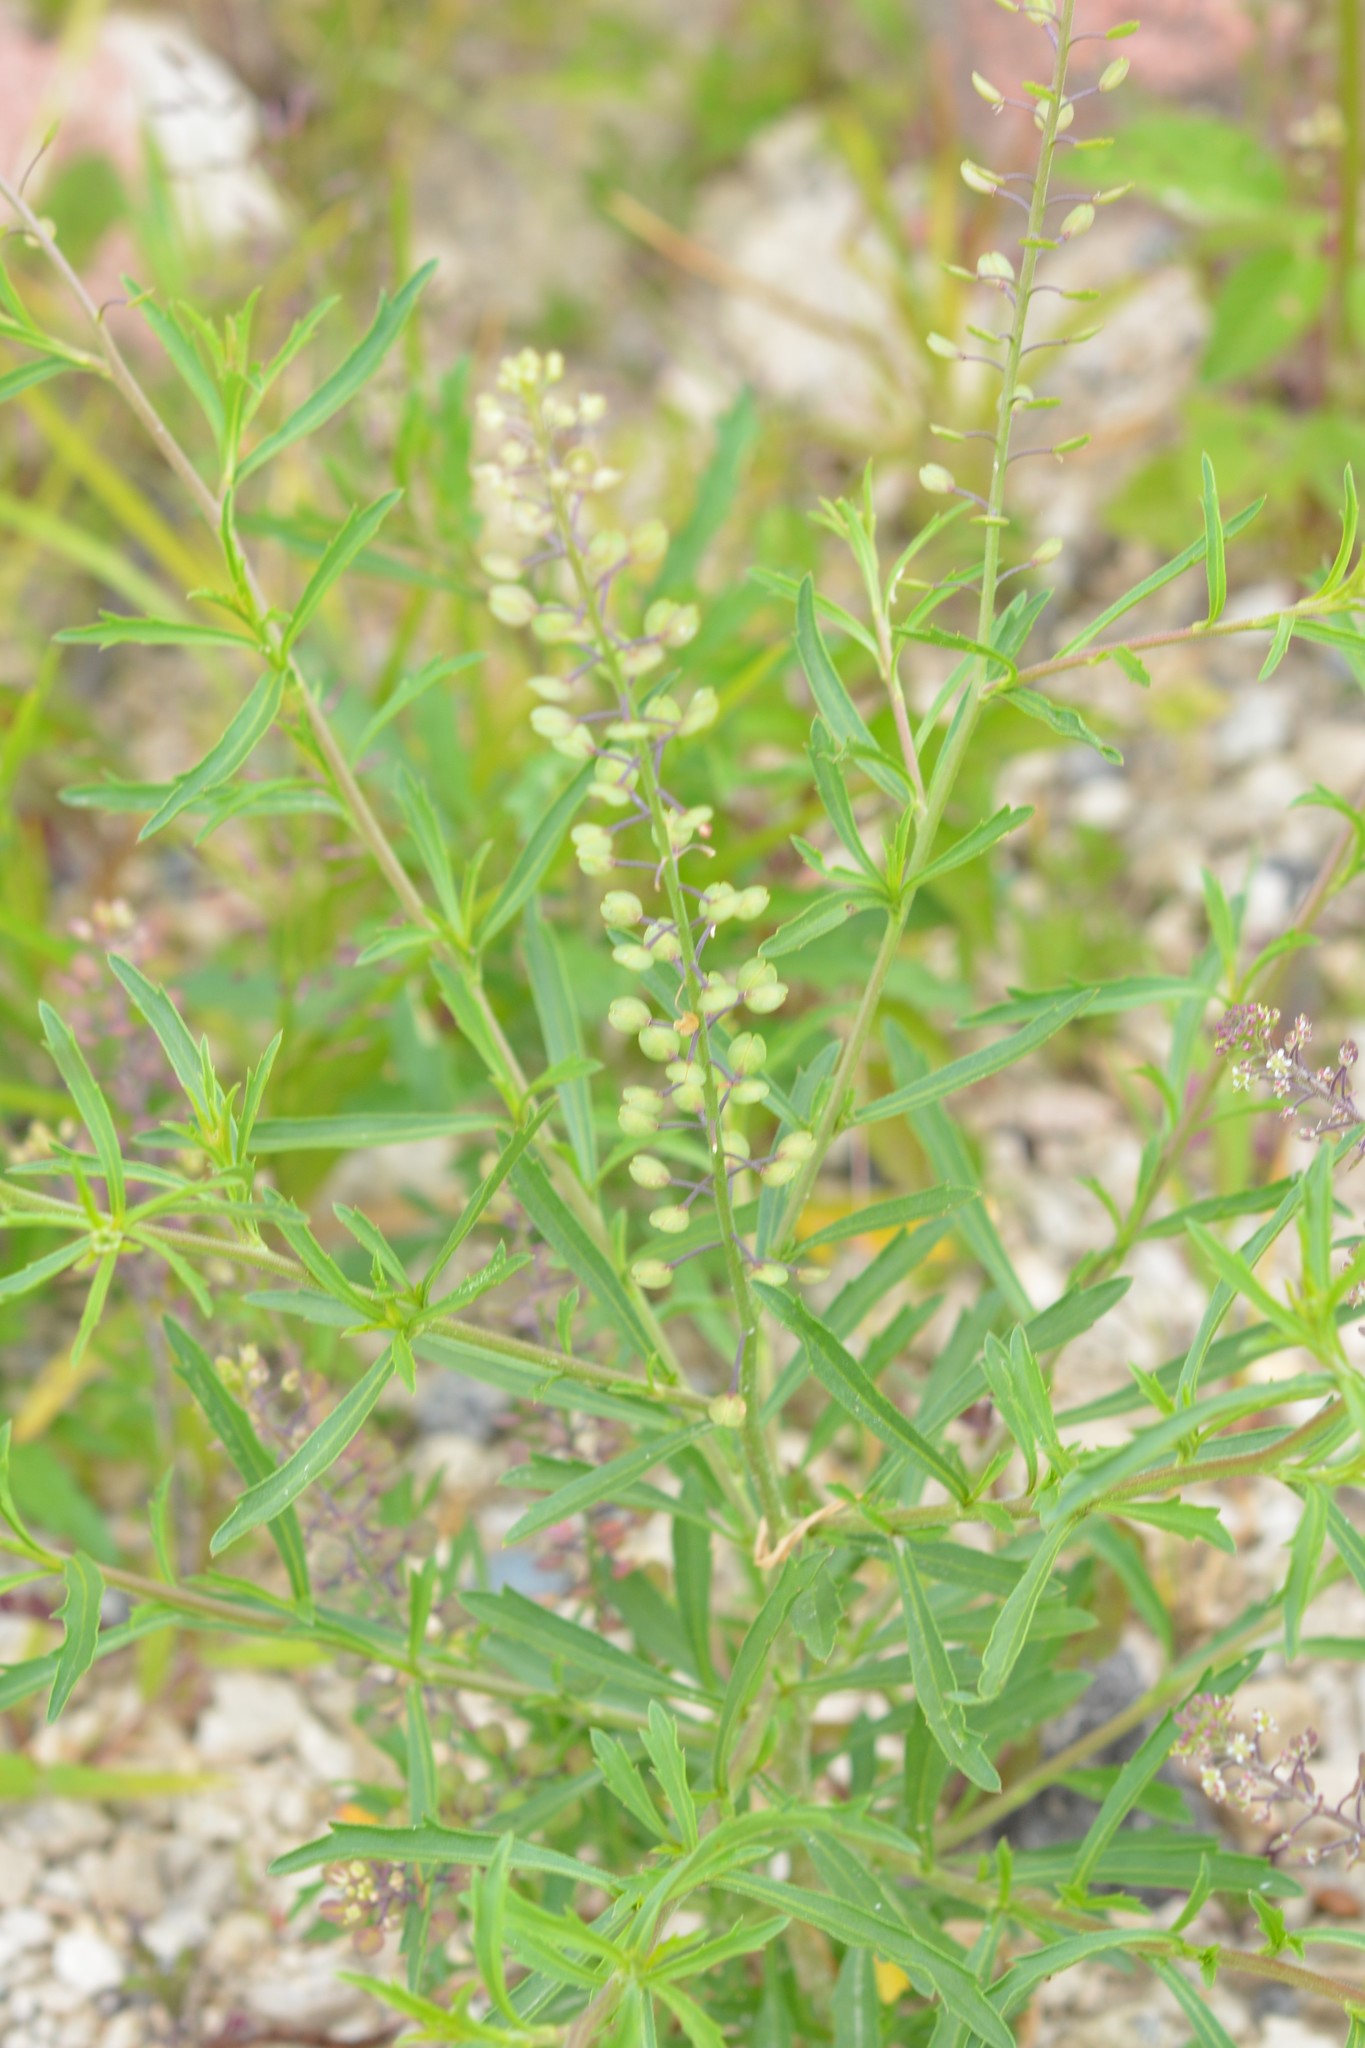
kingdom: Plantae
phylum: Tracheophyta
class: Magnoliopsida
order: Brassicales
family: Brassicaceae
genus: Lepidium
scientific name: Lepidium virginicum
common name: Least pepperwort
